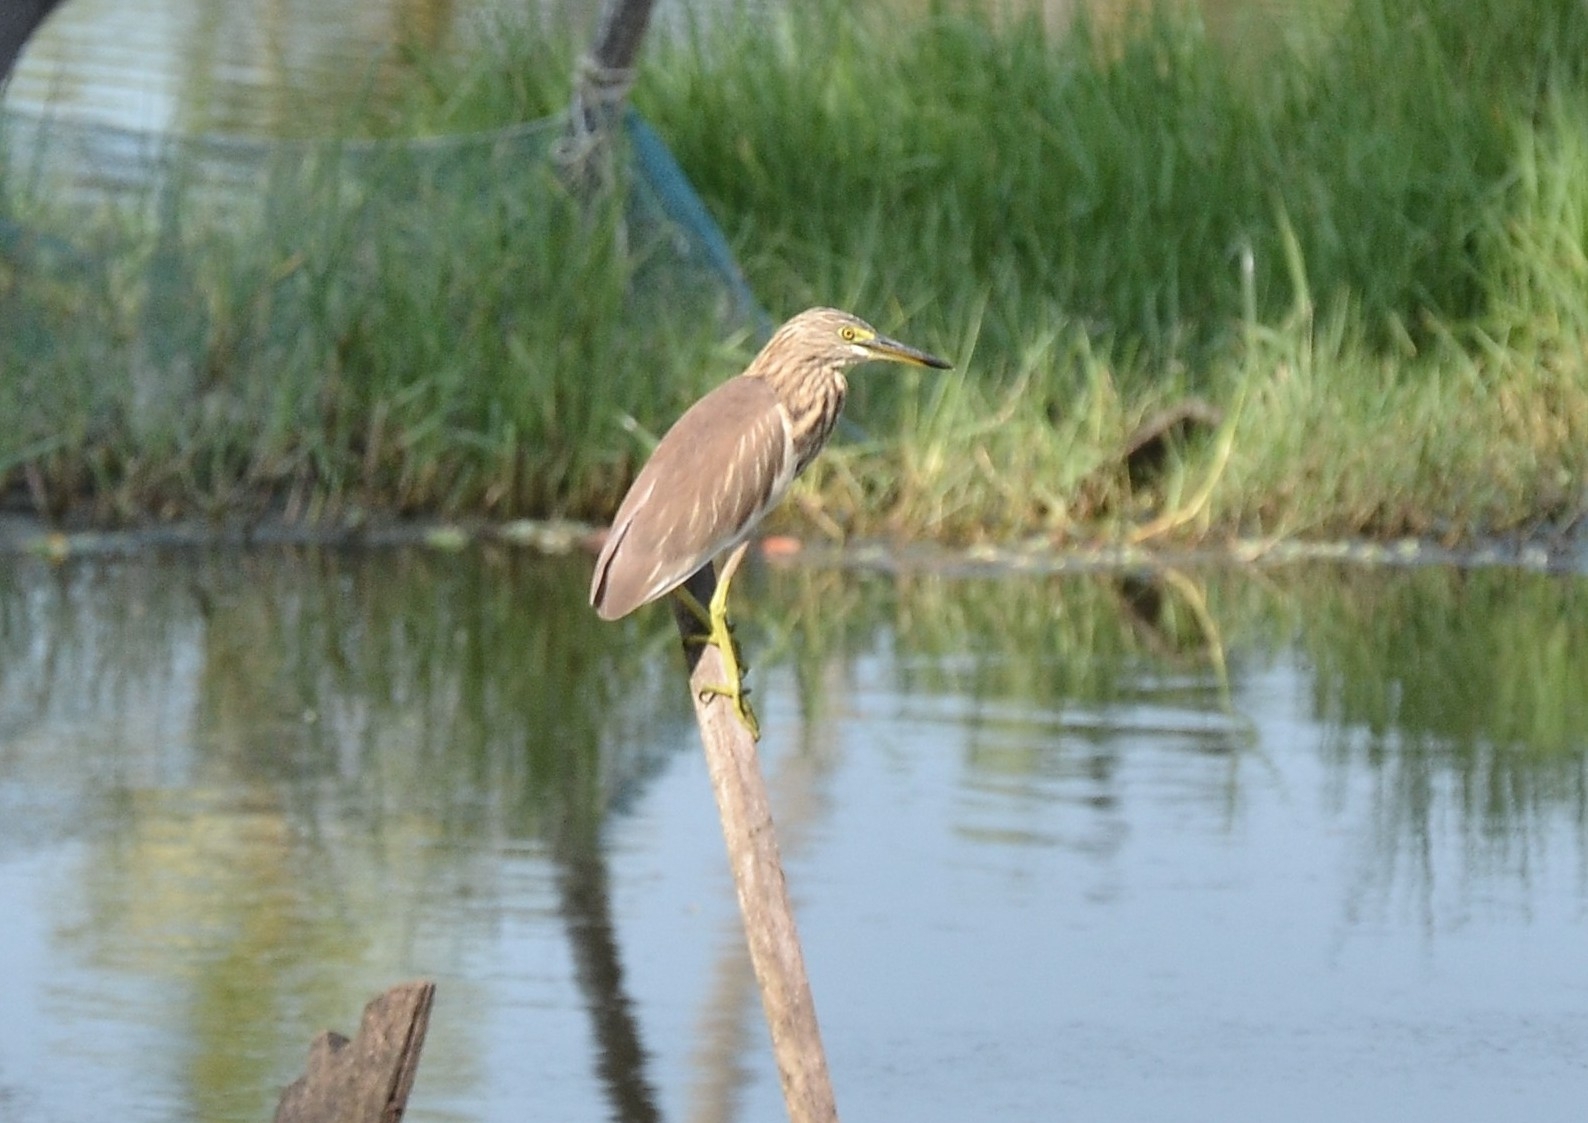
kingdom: Animalia
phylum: Chordata
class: Aves
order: Pelecaniformes
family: Ardeidae
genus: Ardeola
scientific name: Ardeola grayii
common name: Indian pond heron
